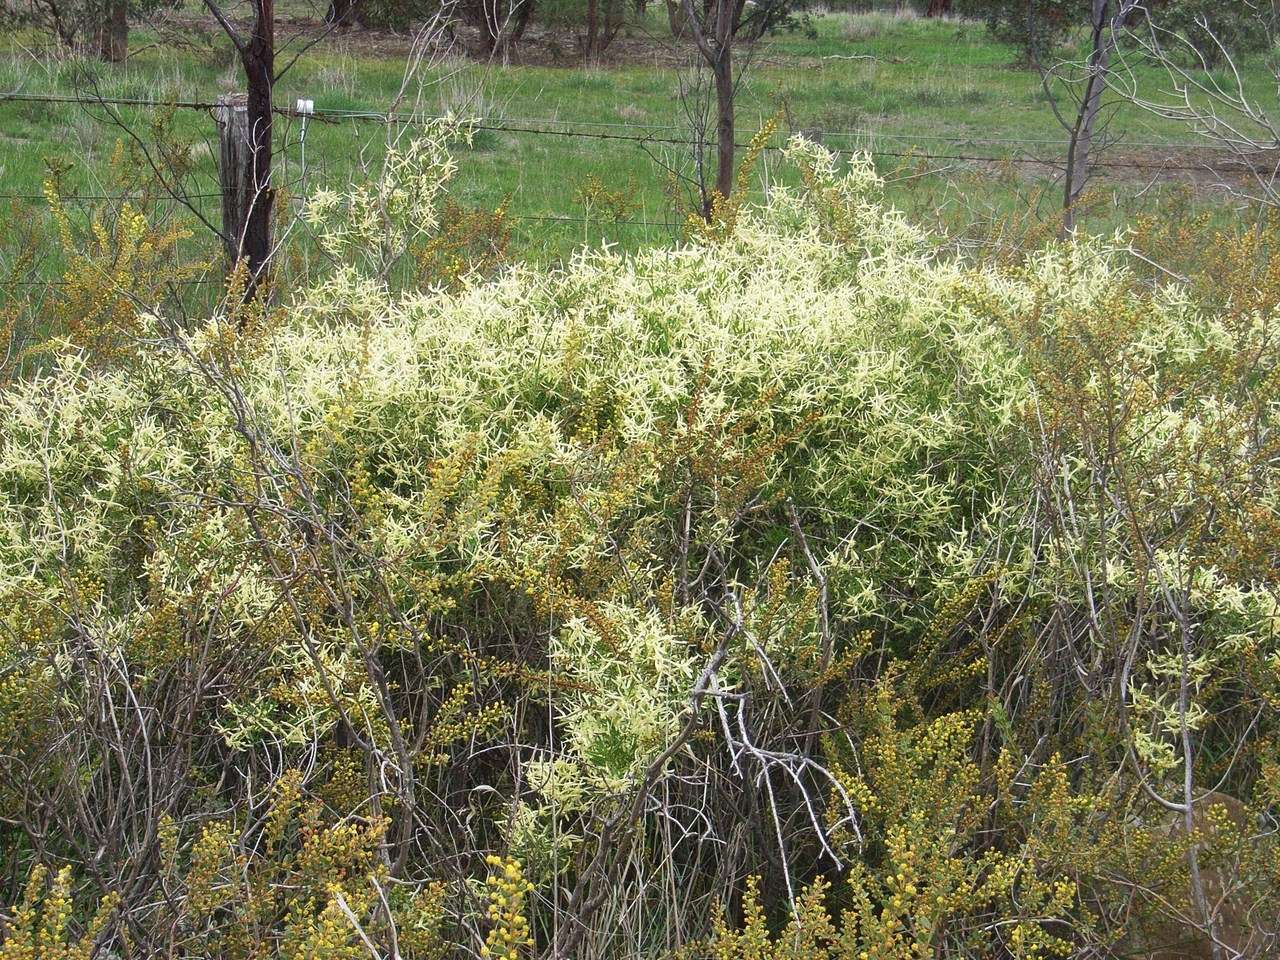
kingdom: Plantae
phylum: Tracheophyta
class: Magnoliopsida
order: Ranunculales
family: Ranunculaceae
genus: Clematis
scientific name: Clematis microphylla
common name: Headachevine
